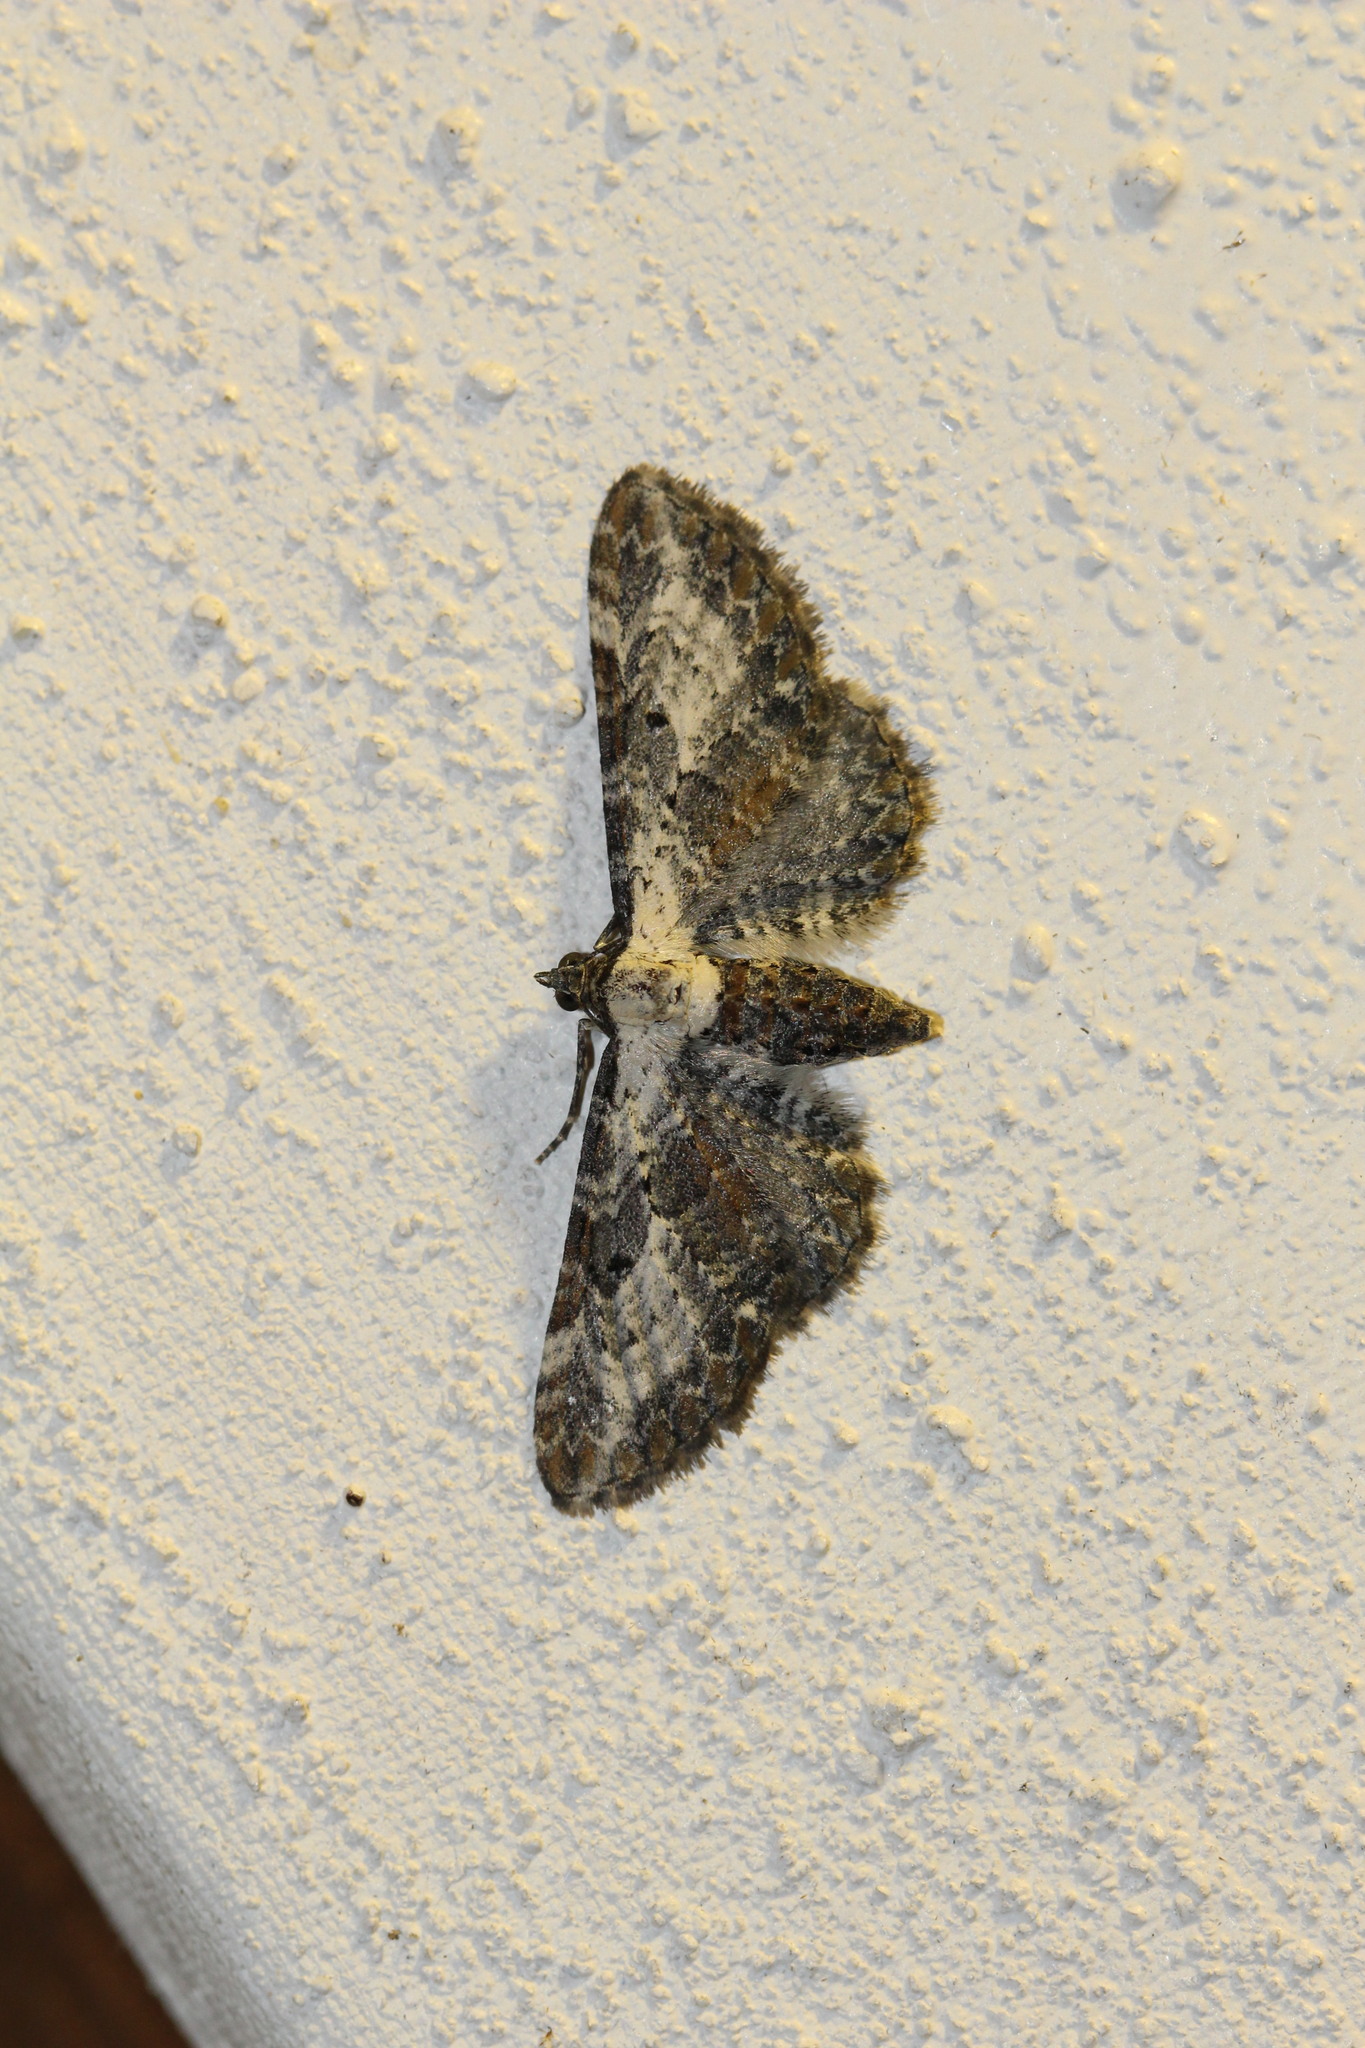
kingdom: Animalia
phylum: Arthropoda
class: Insecta
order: Lepidoptera
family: Geometridae
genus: Eupithecia
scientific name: Eupithecia succenturiata
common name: Bordered pug
